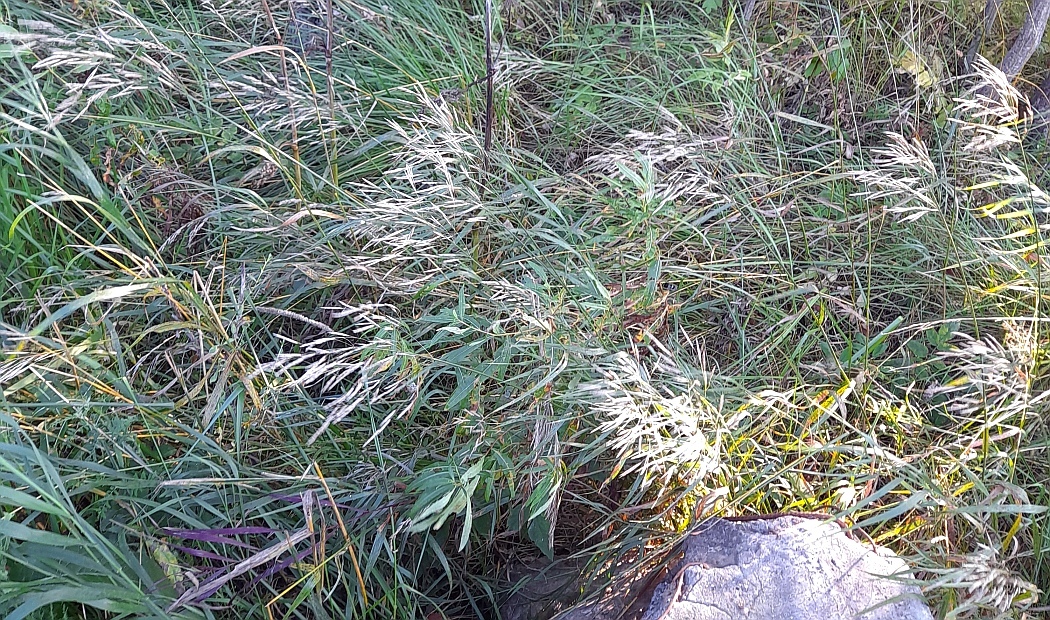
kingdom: Plantae
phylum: Tracheophyta
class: Liliopsida
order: Poales
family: Poaceae
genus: Bromus
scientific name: Bromus inermis
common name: Smooth brome
